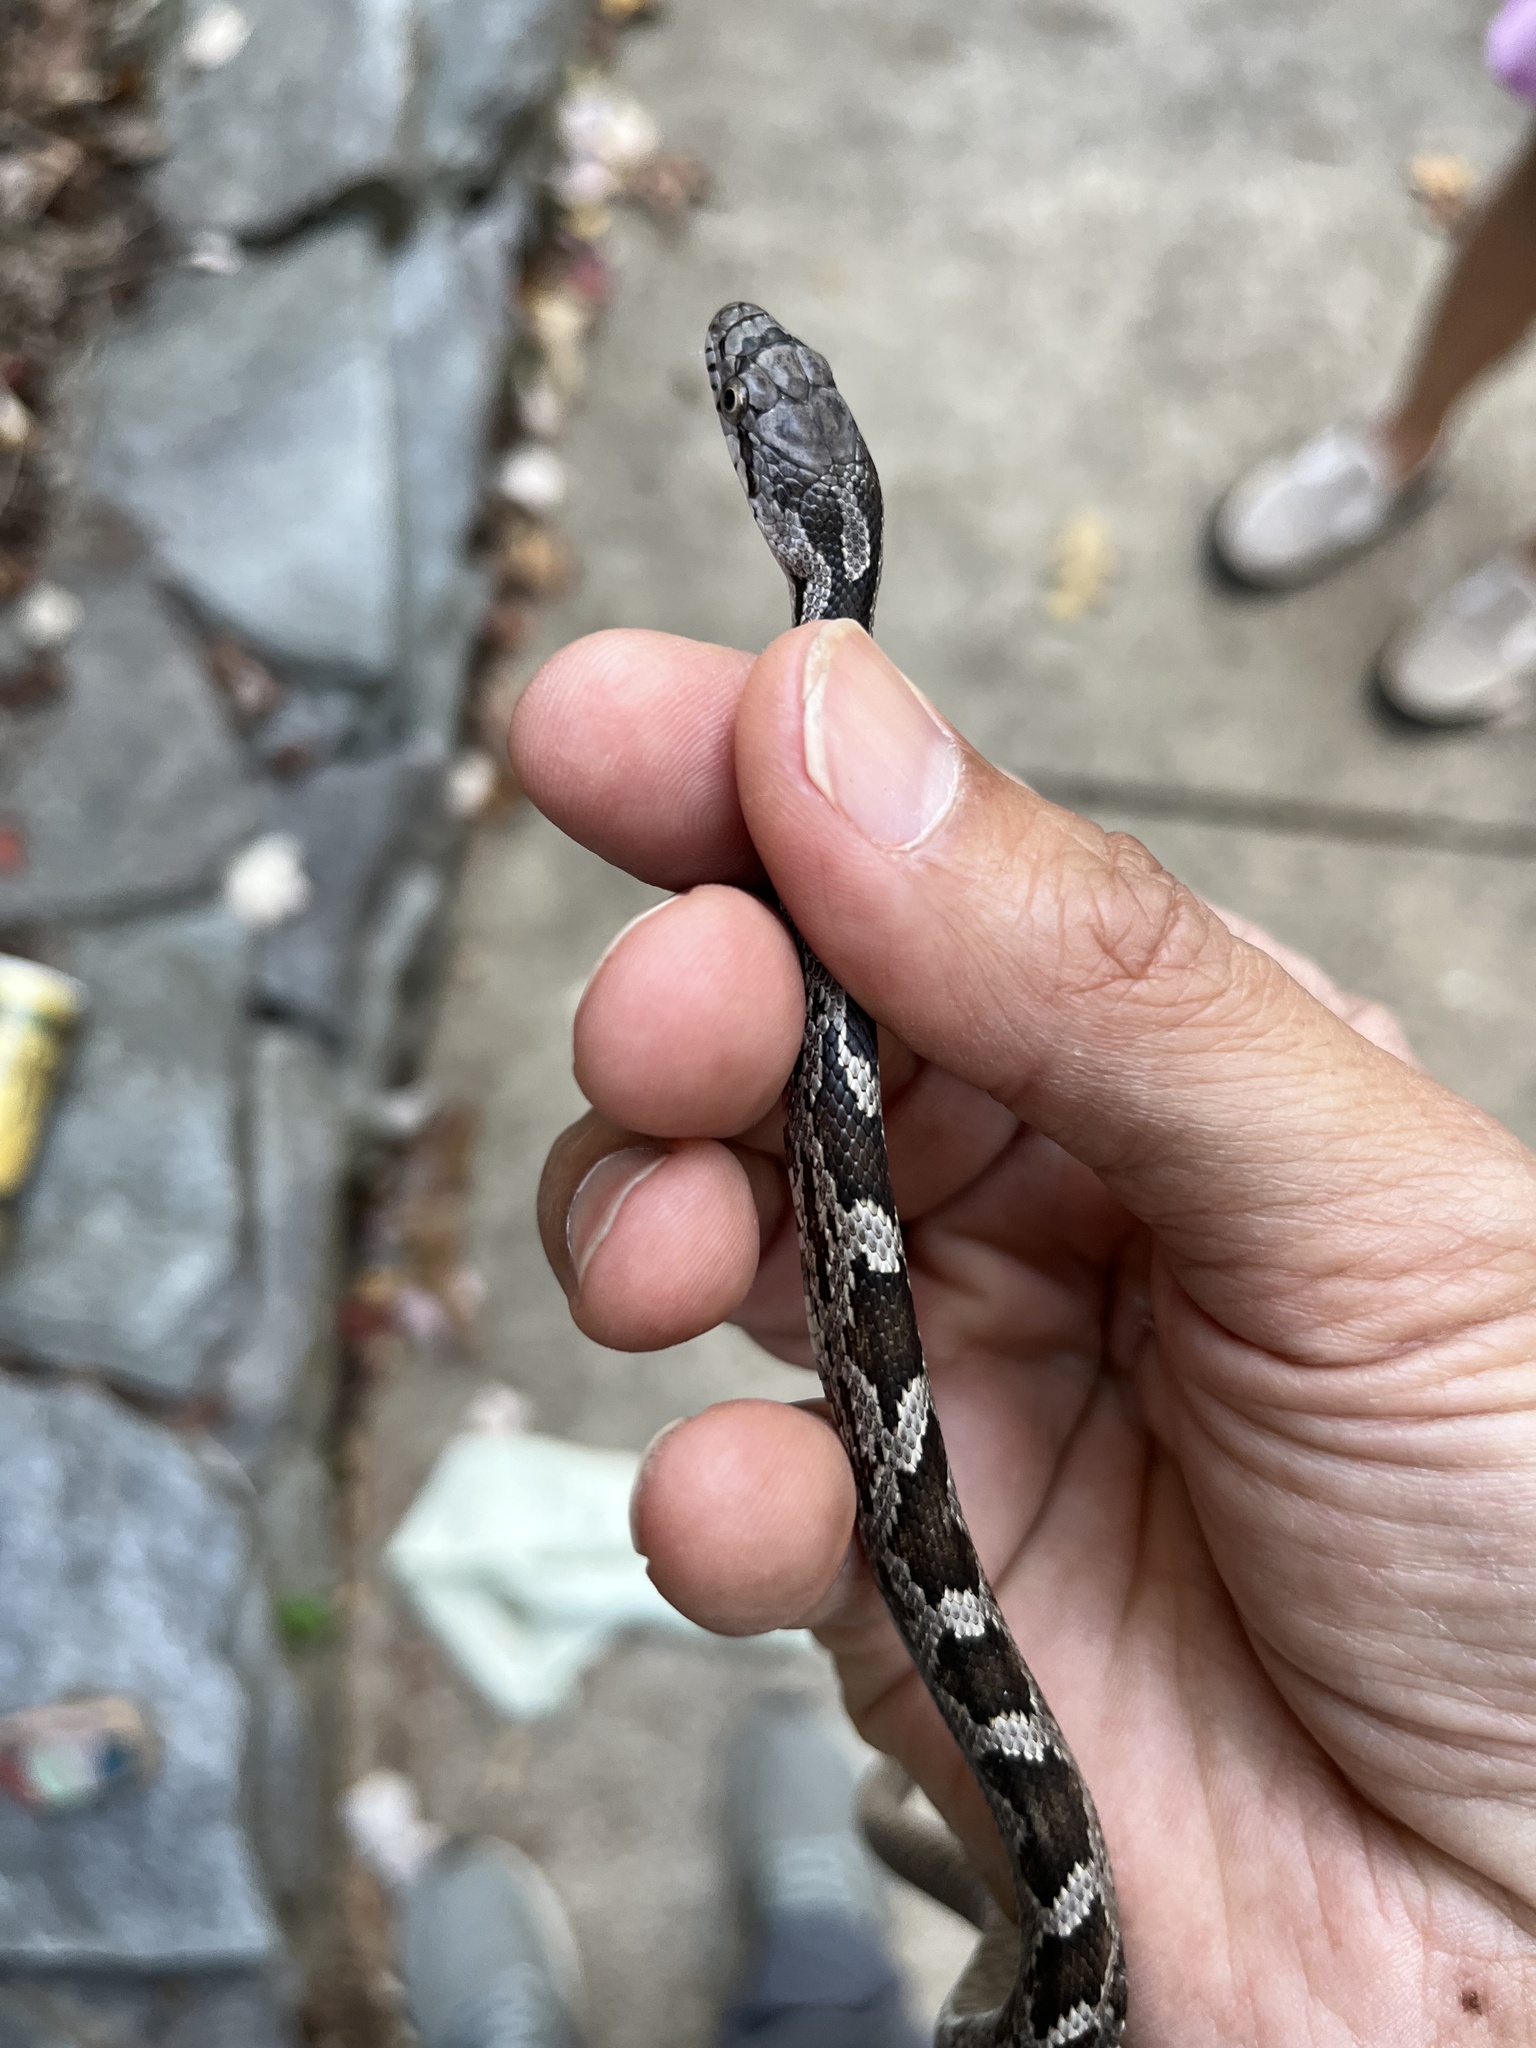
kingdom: Animalia
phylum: Chordata
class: Squamata
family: Colubridae
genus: Pantherophis
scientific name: Pantherophis alleghaniensis
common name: Eastern rat snake
